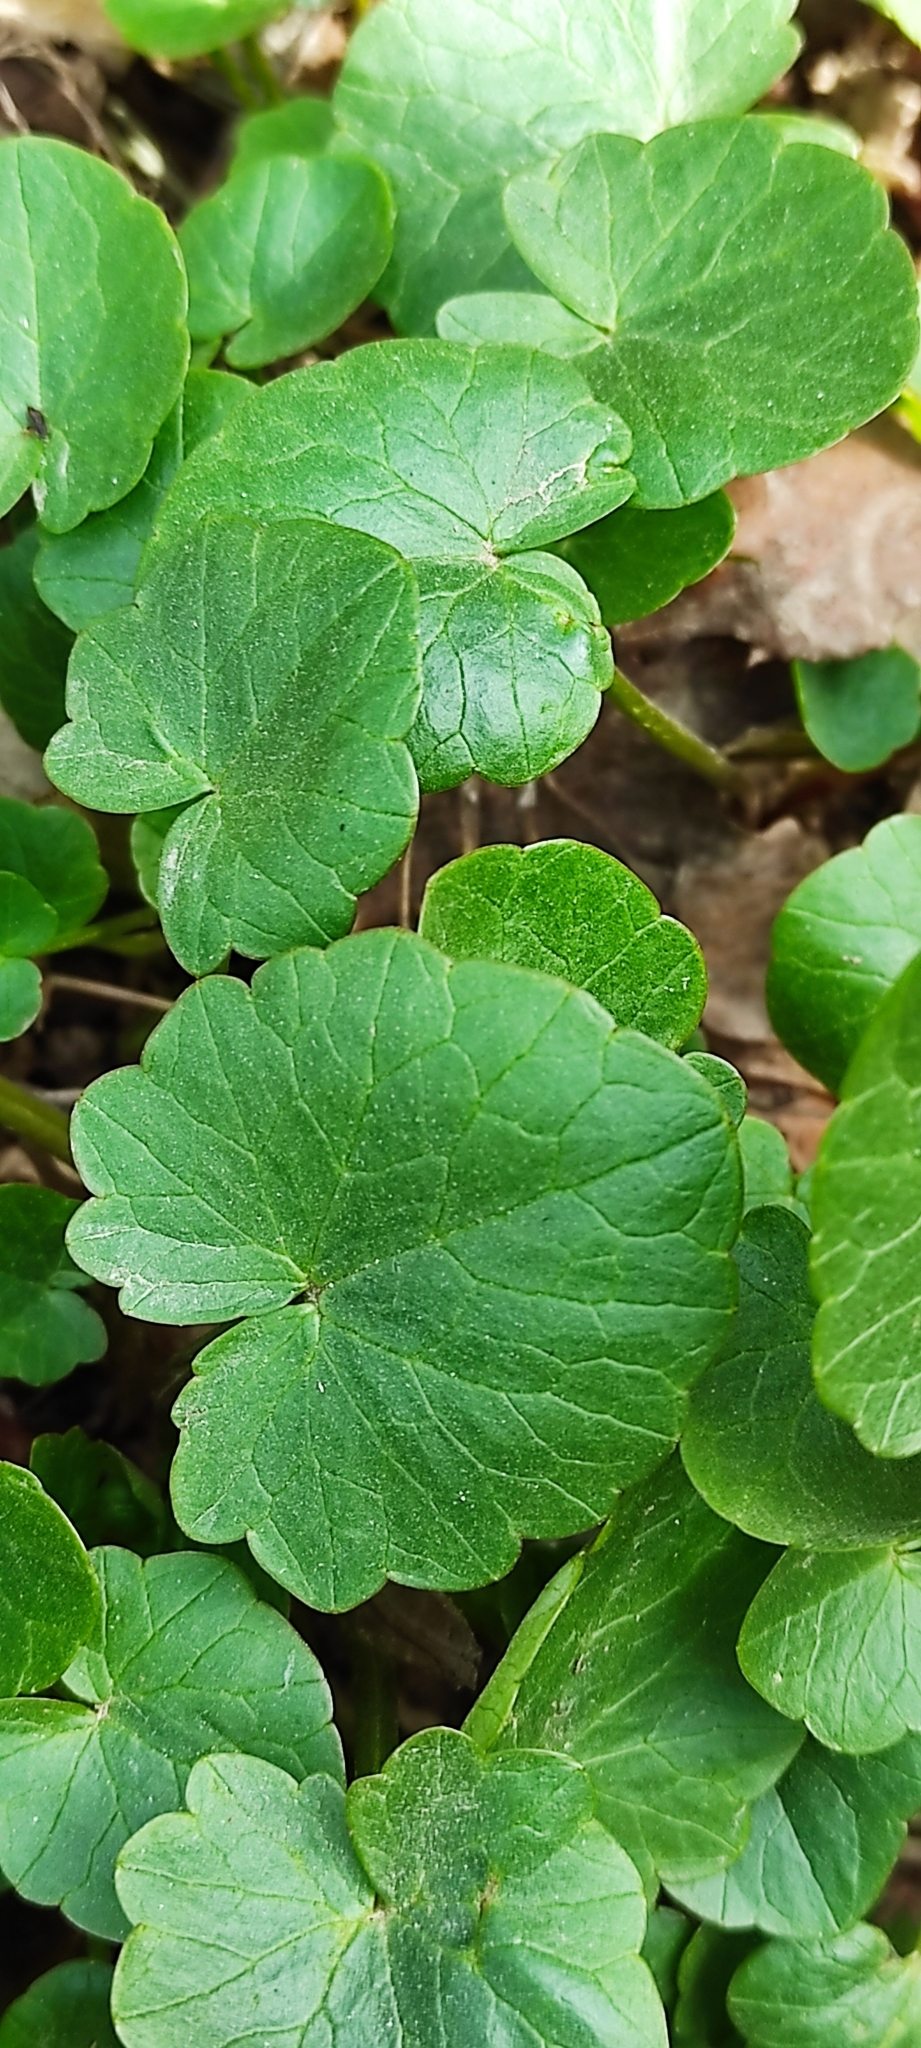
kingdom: Plantae
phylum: Tracheophyta
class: Magnoliopsida
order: Ranunculales
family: Ranunculaceae
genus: Ficaria
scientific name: Ficaria verna
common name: Lesser celandine
